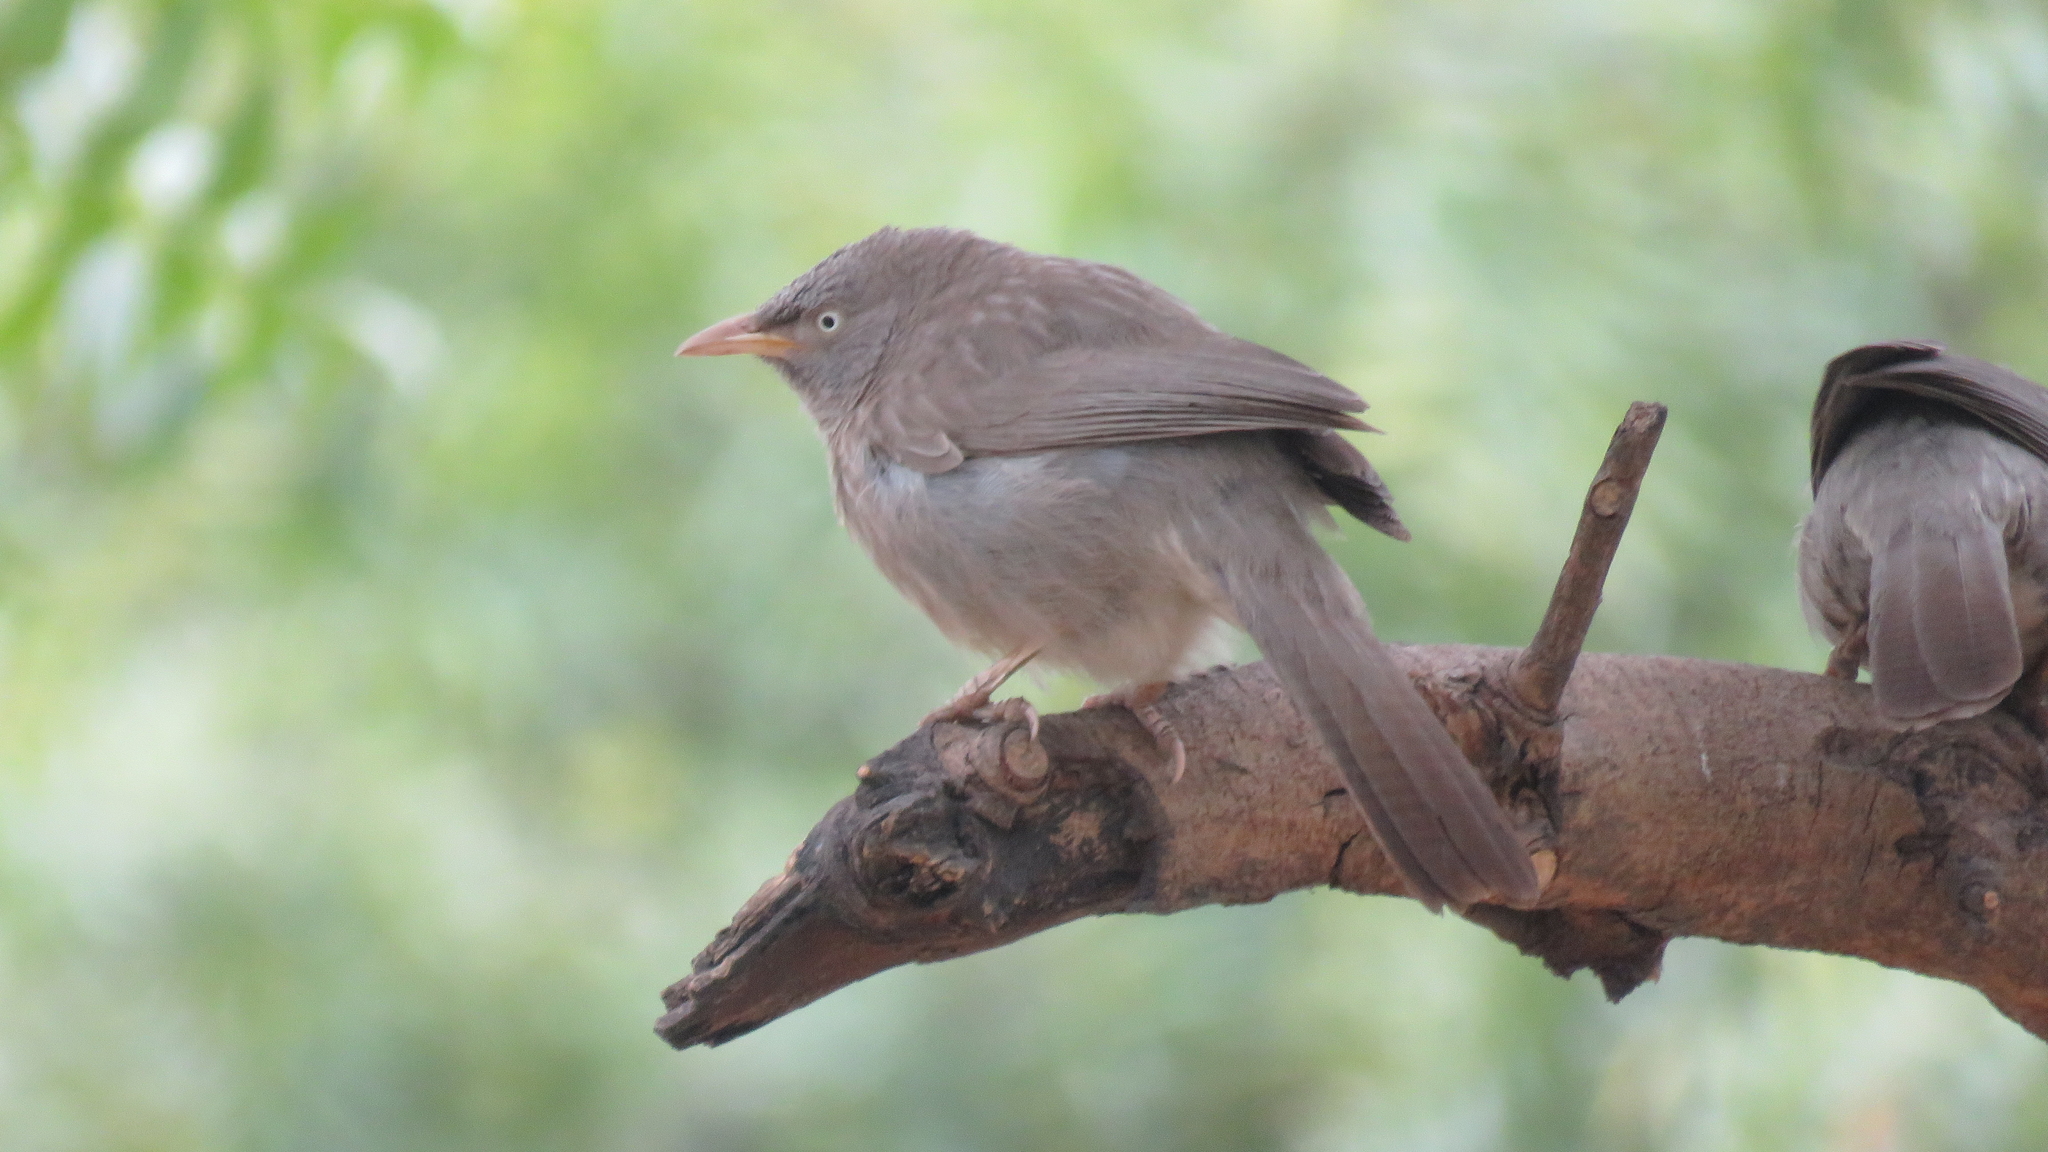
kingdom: Animalia
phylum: Chordata
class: Aves
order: Passeriformes
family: Leiothrichidae
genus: Turdoides
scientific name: Turdoides striata
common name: Jungle babbler
